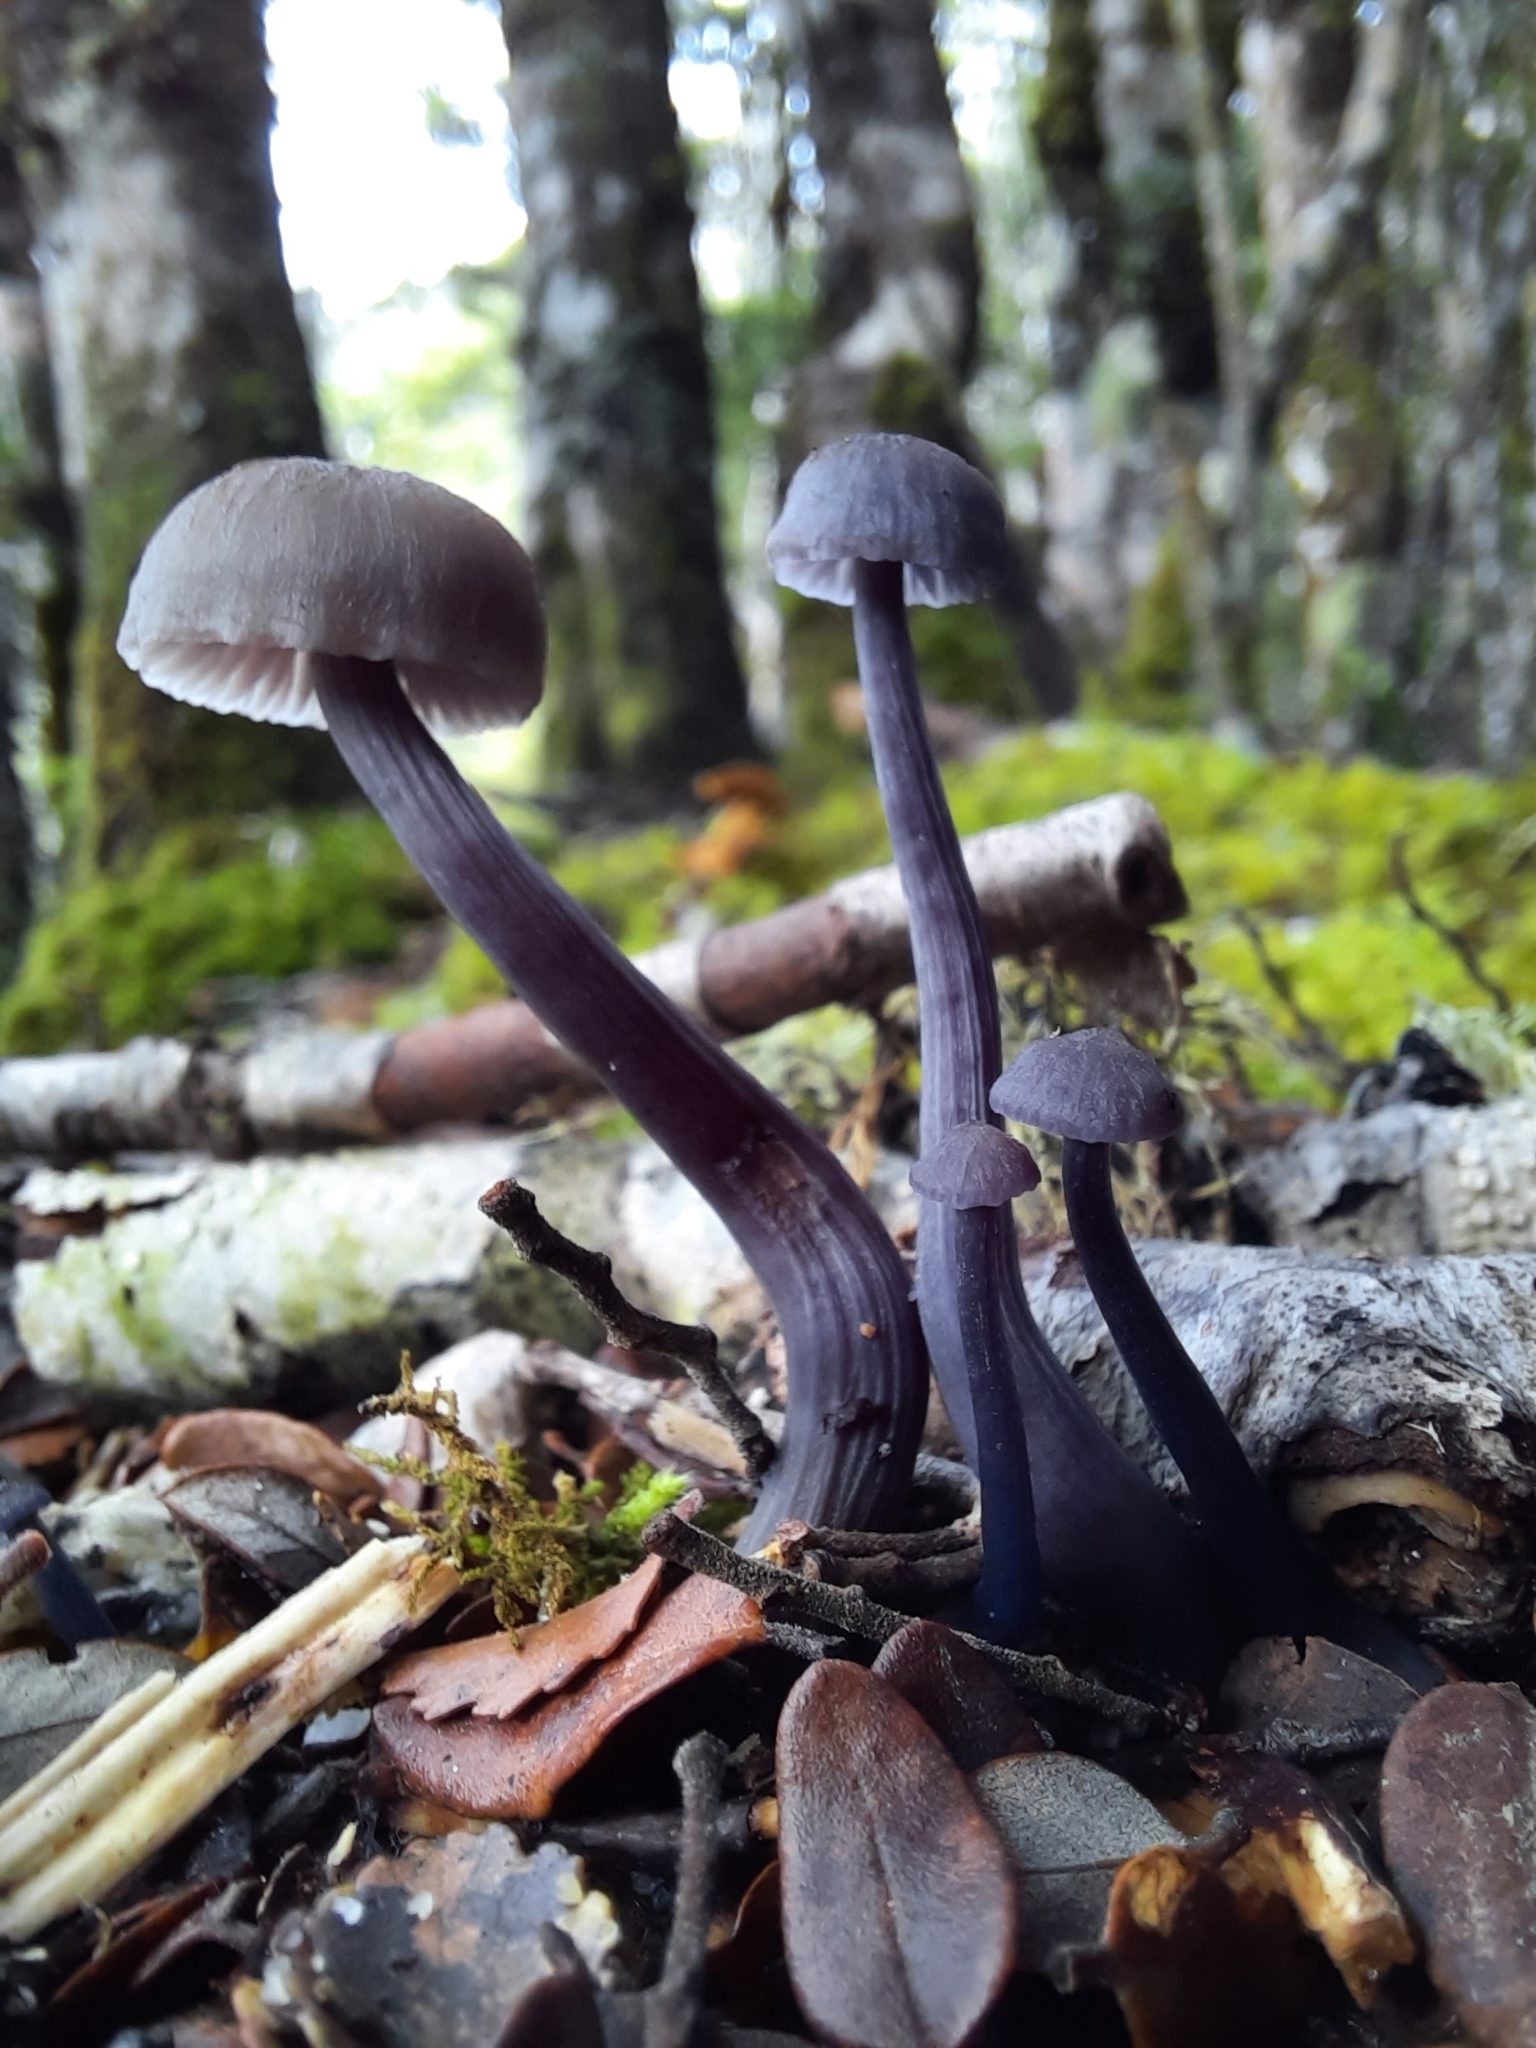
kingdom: Fungi
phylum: Basidiomycota
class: Agaricomycetes
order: Agaricales
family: Hydnangiaceae
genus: Laccaria
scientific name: Laccaria masoniae
